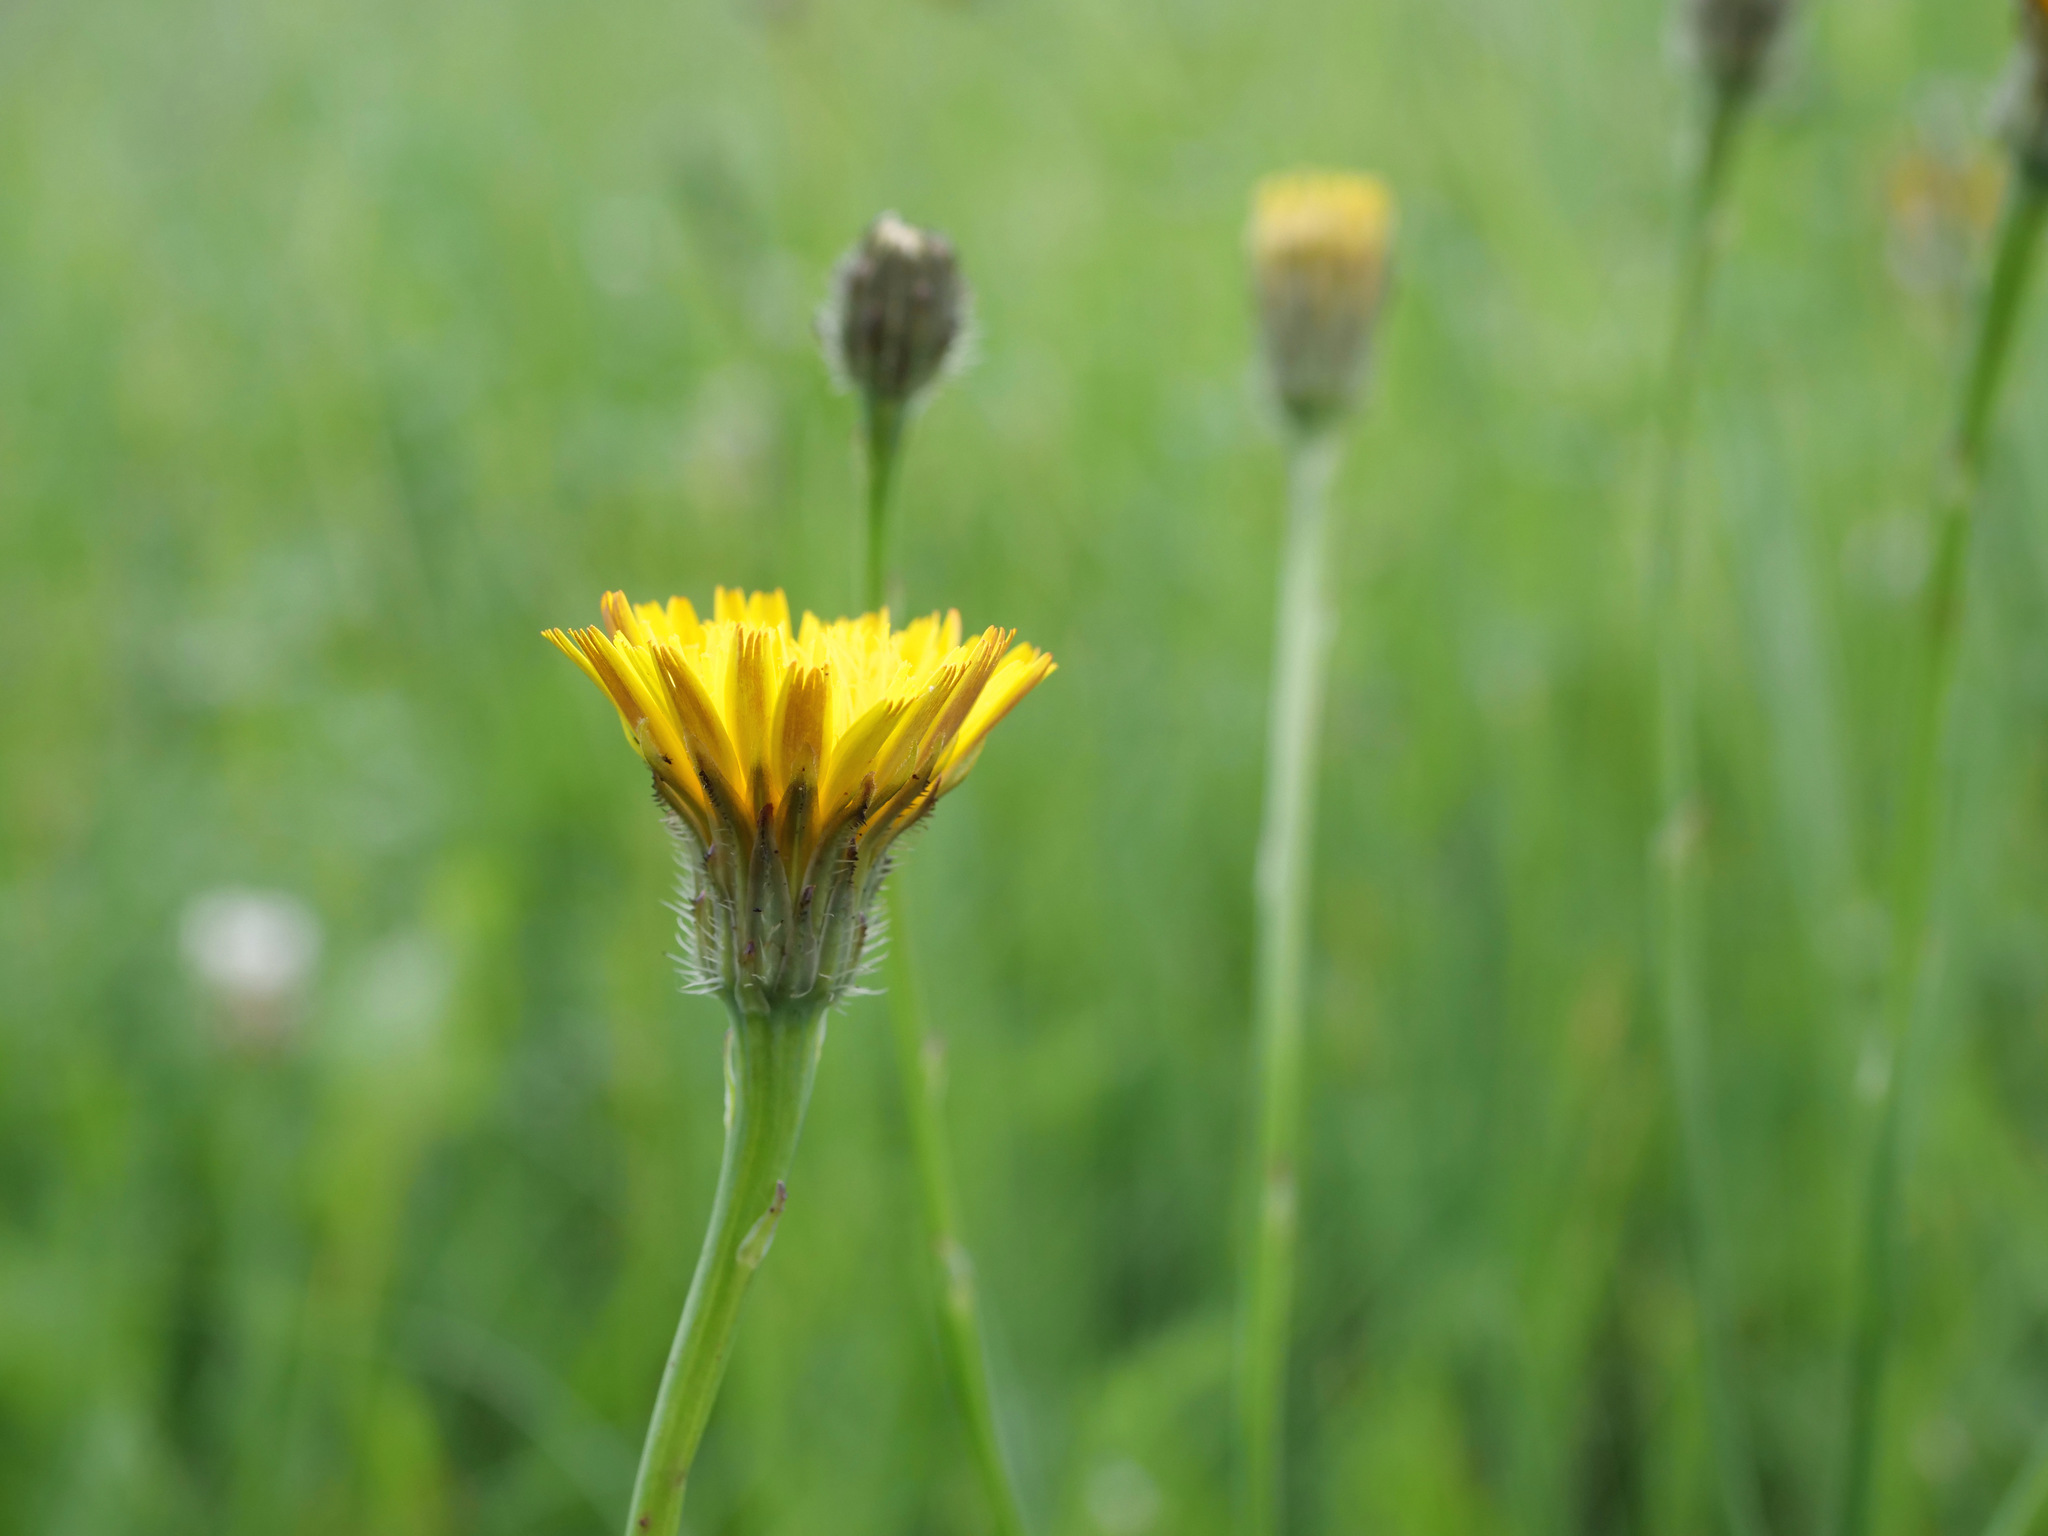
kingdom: Plantae
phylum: Tracheophyta
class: Magnoliopsida
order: Asterales
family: Asteraceae
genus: Hypochaeris
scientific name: Hypochaeris radicata
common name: Flatweed
